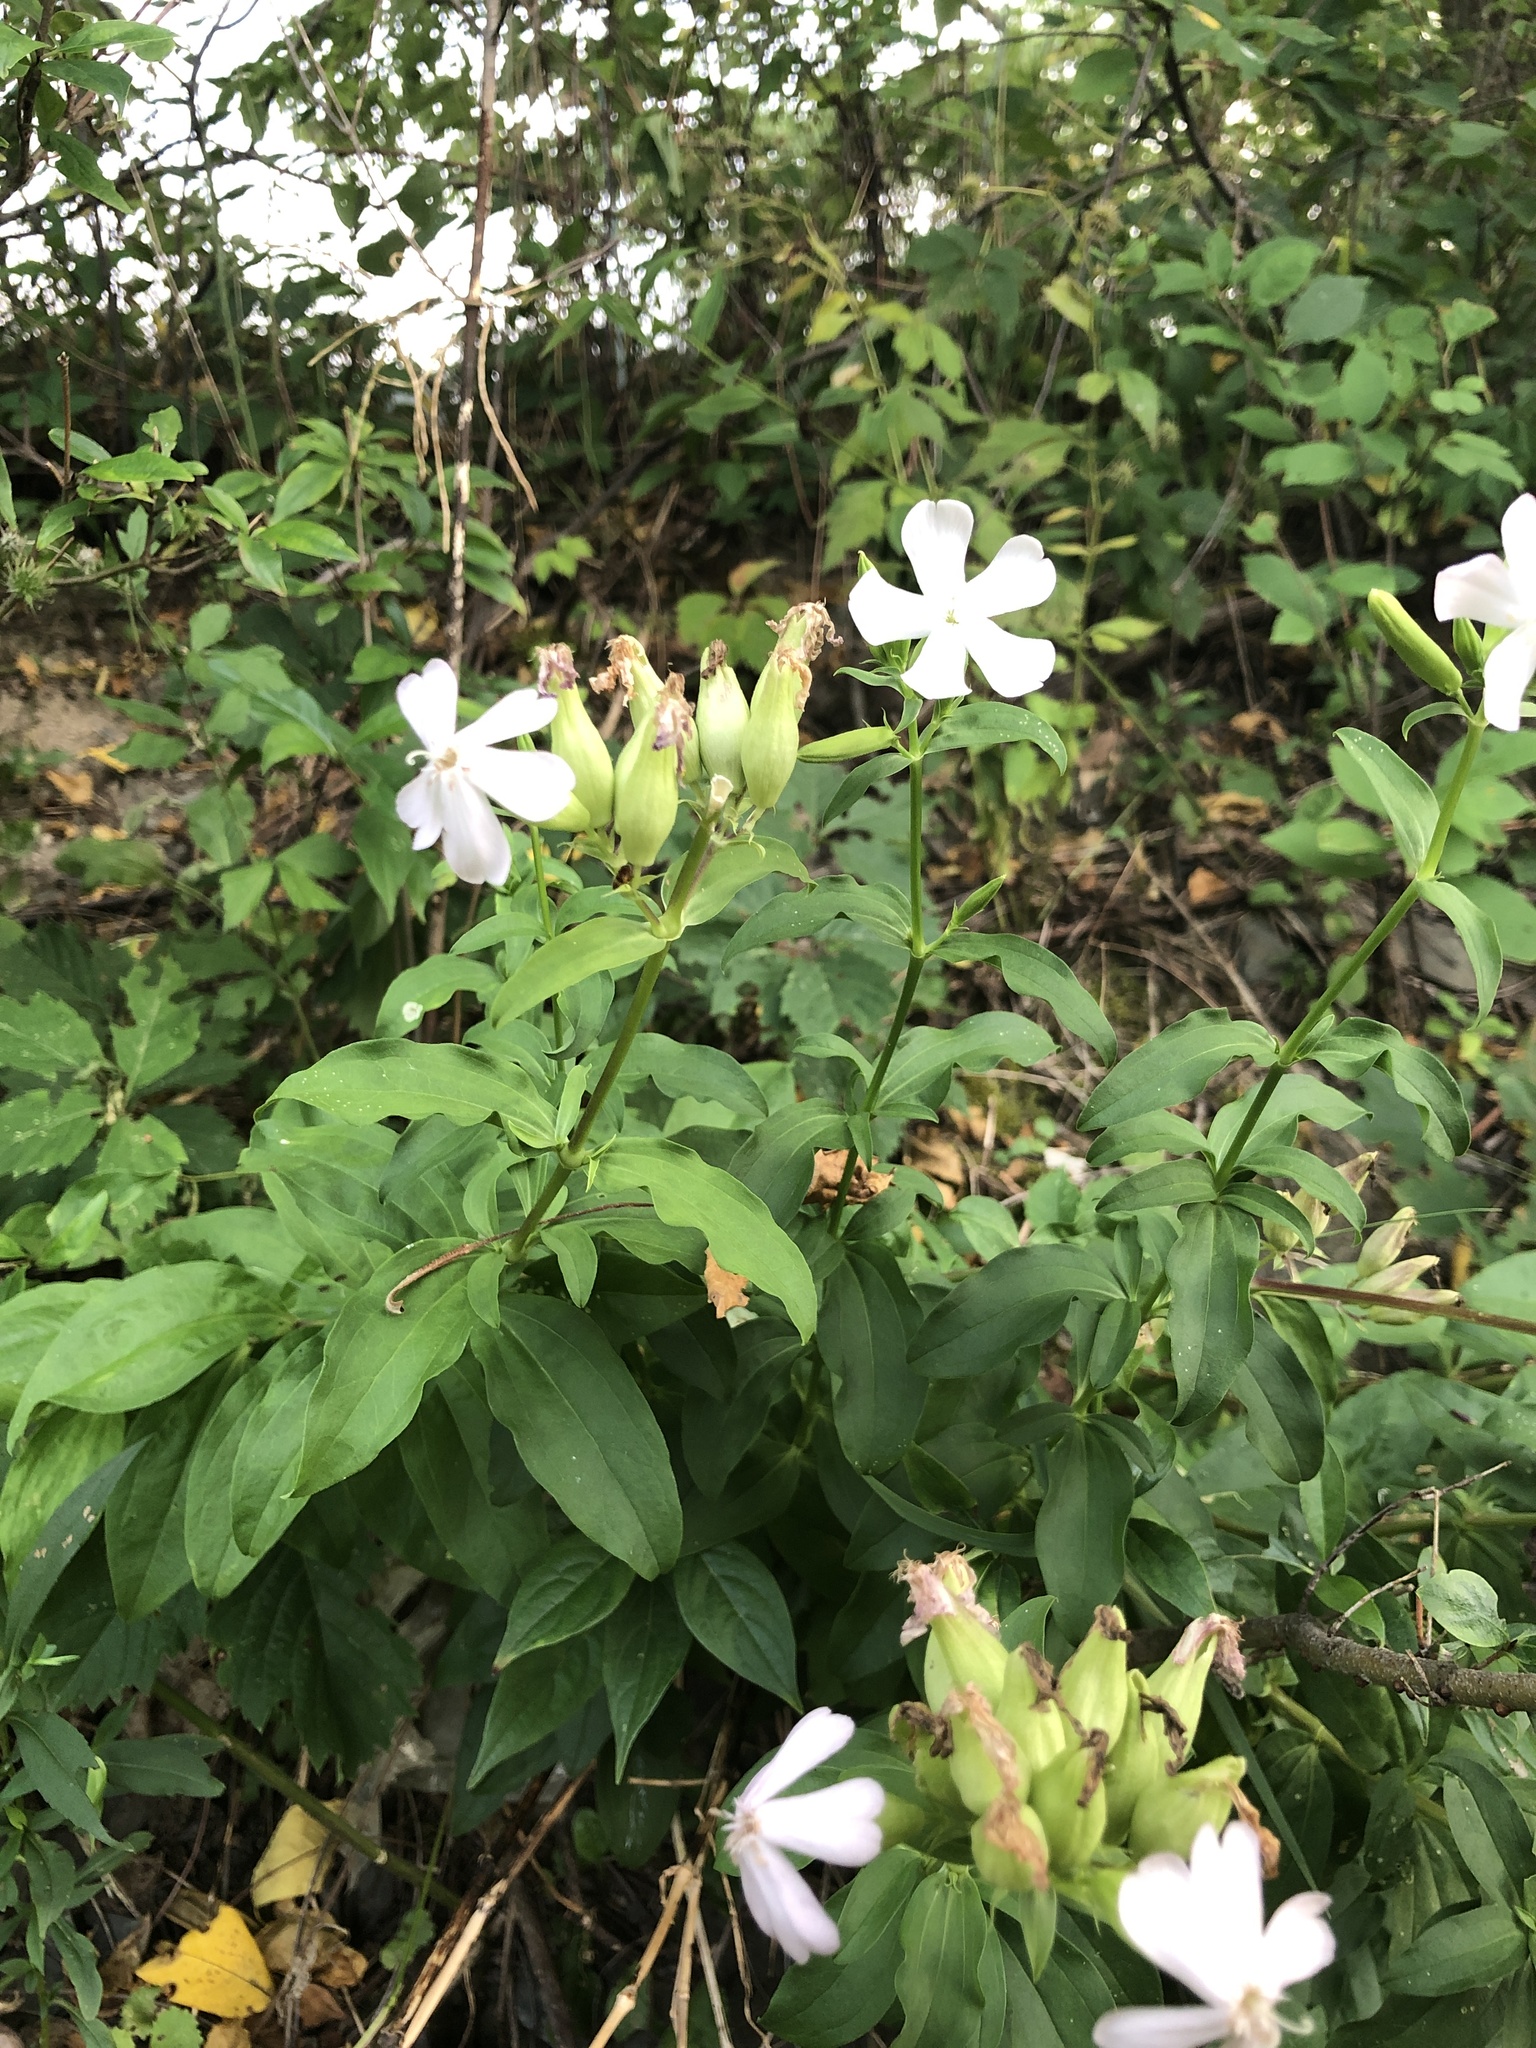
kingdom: Plantae
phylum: Tracheophyta
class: Magnoliopsida
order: Caryophyllales
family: Caryophyllaceae
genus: Saponaria
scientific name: Saponaria officinalis
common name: Soapwort
